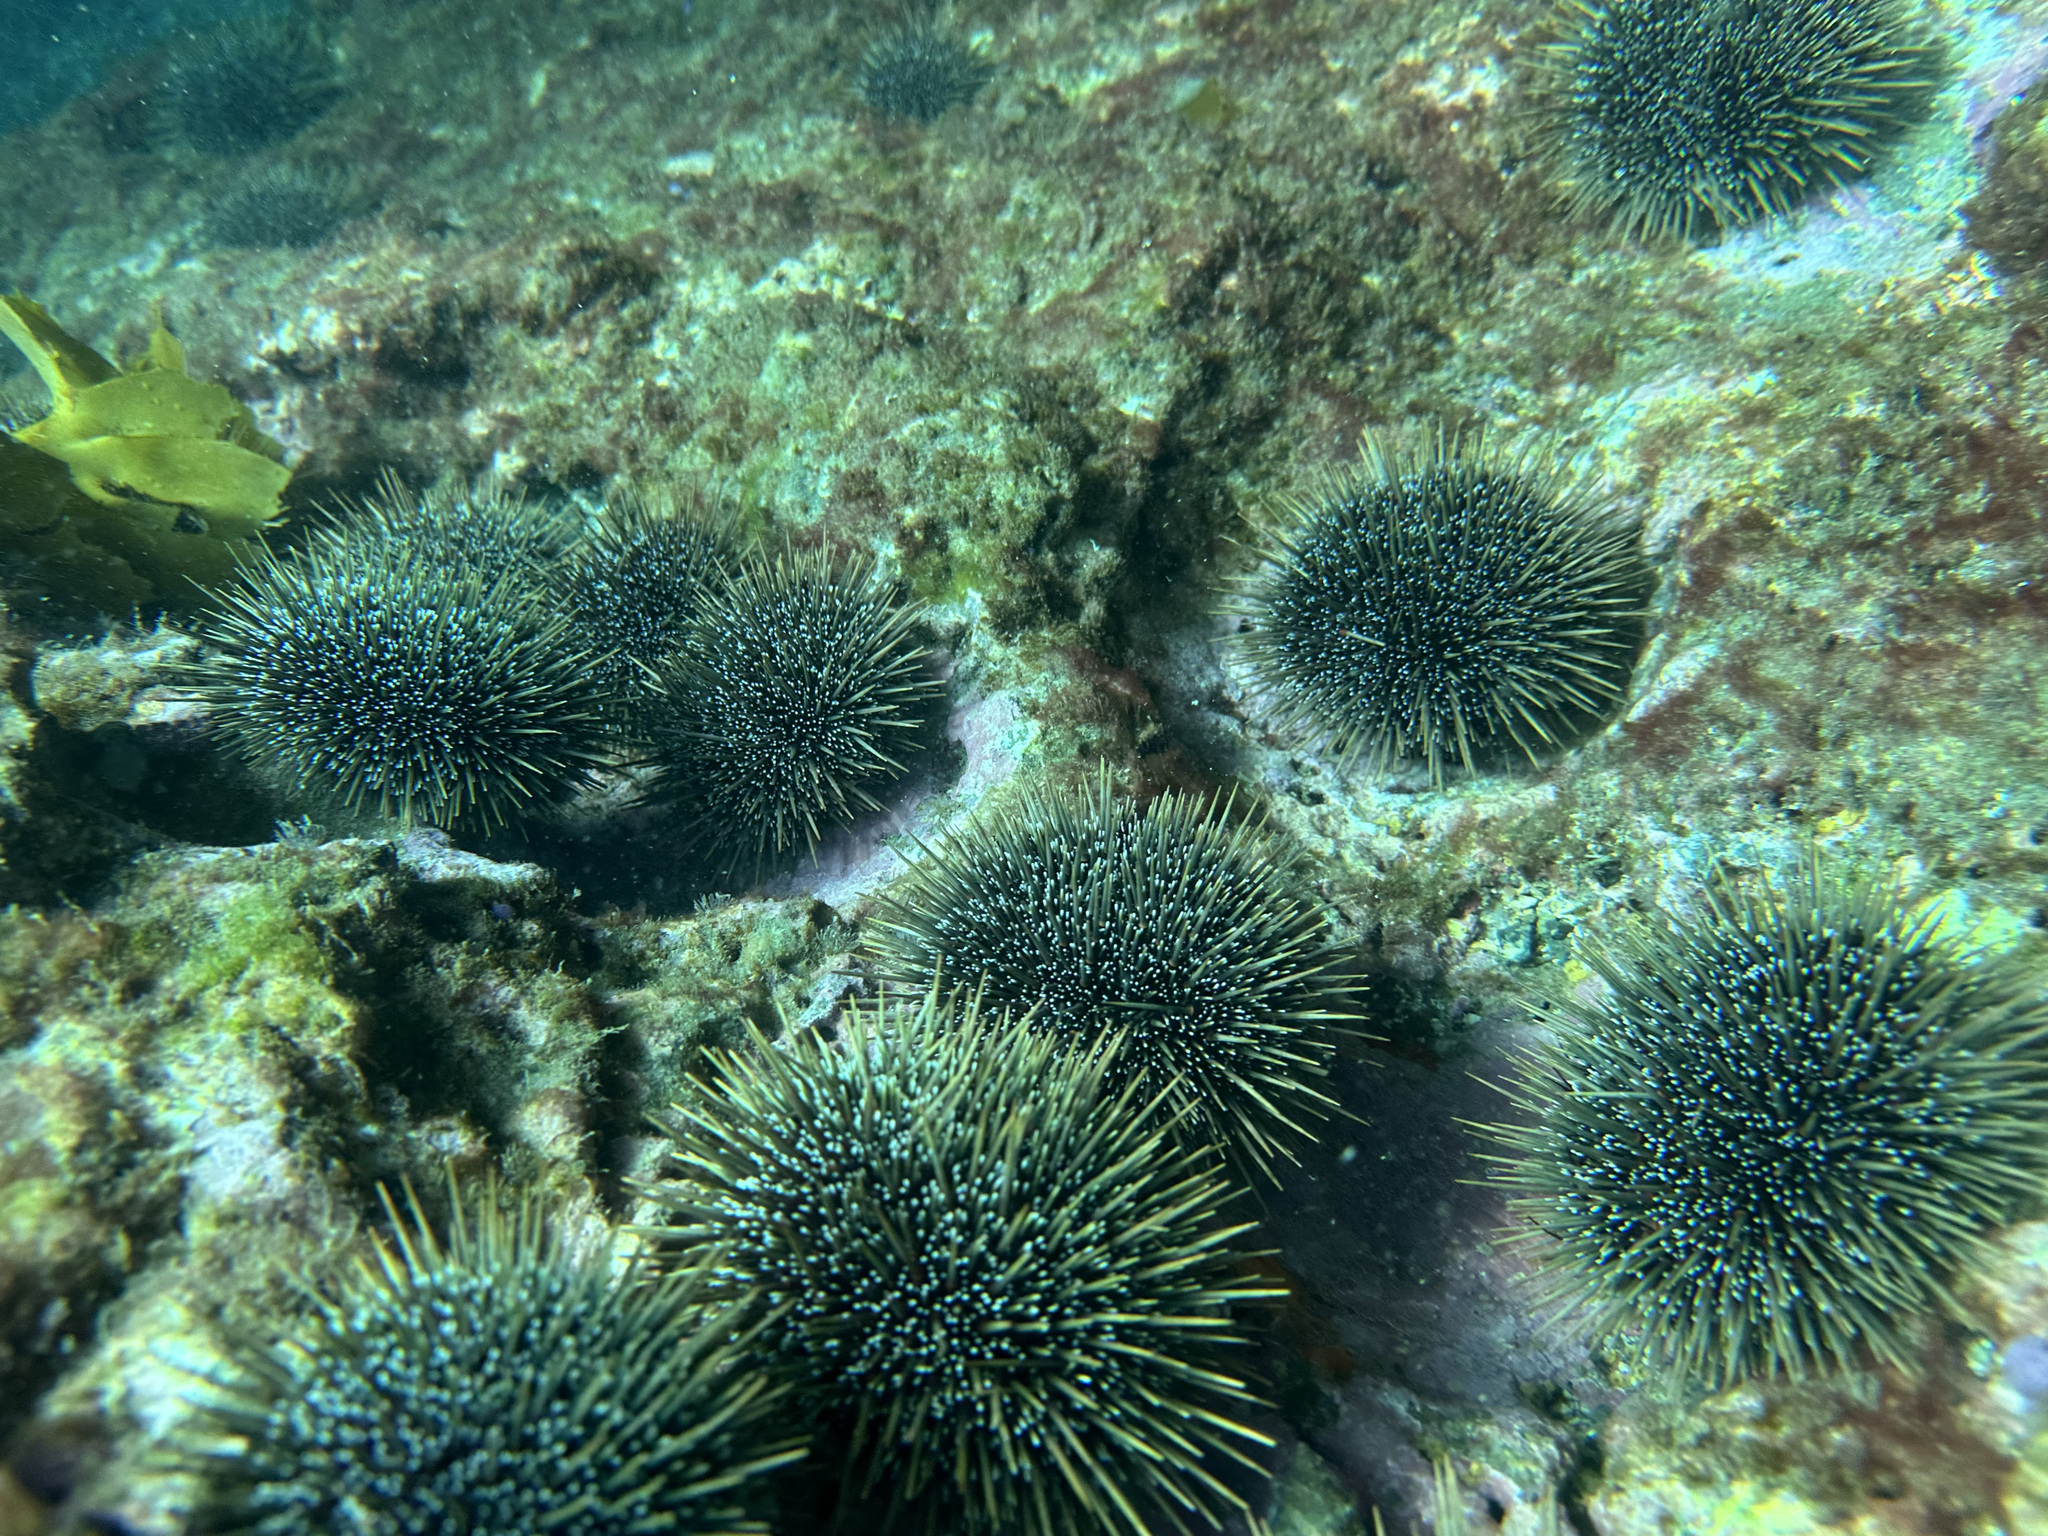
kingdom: Animalia
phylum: Echinodermata
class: Echinoidea
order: Camarodonta
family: Echinometridae
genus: Evechinus
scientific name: Evechinus chloroticus
